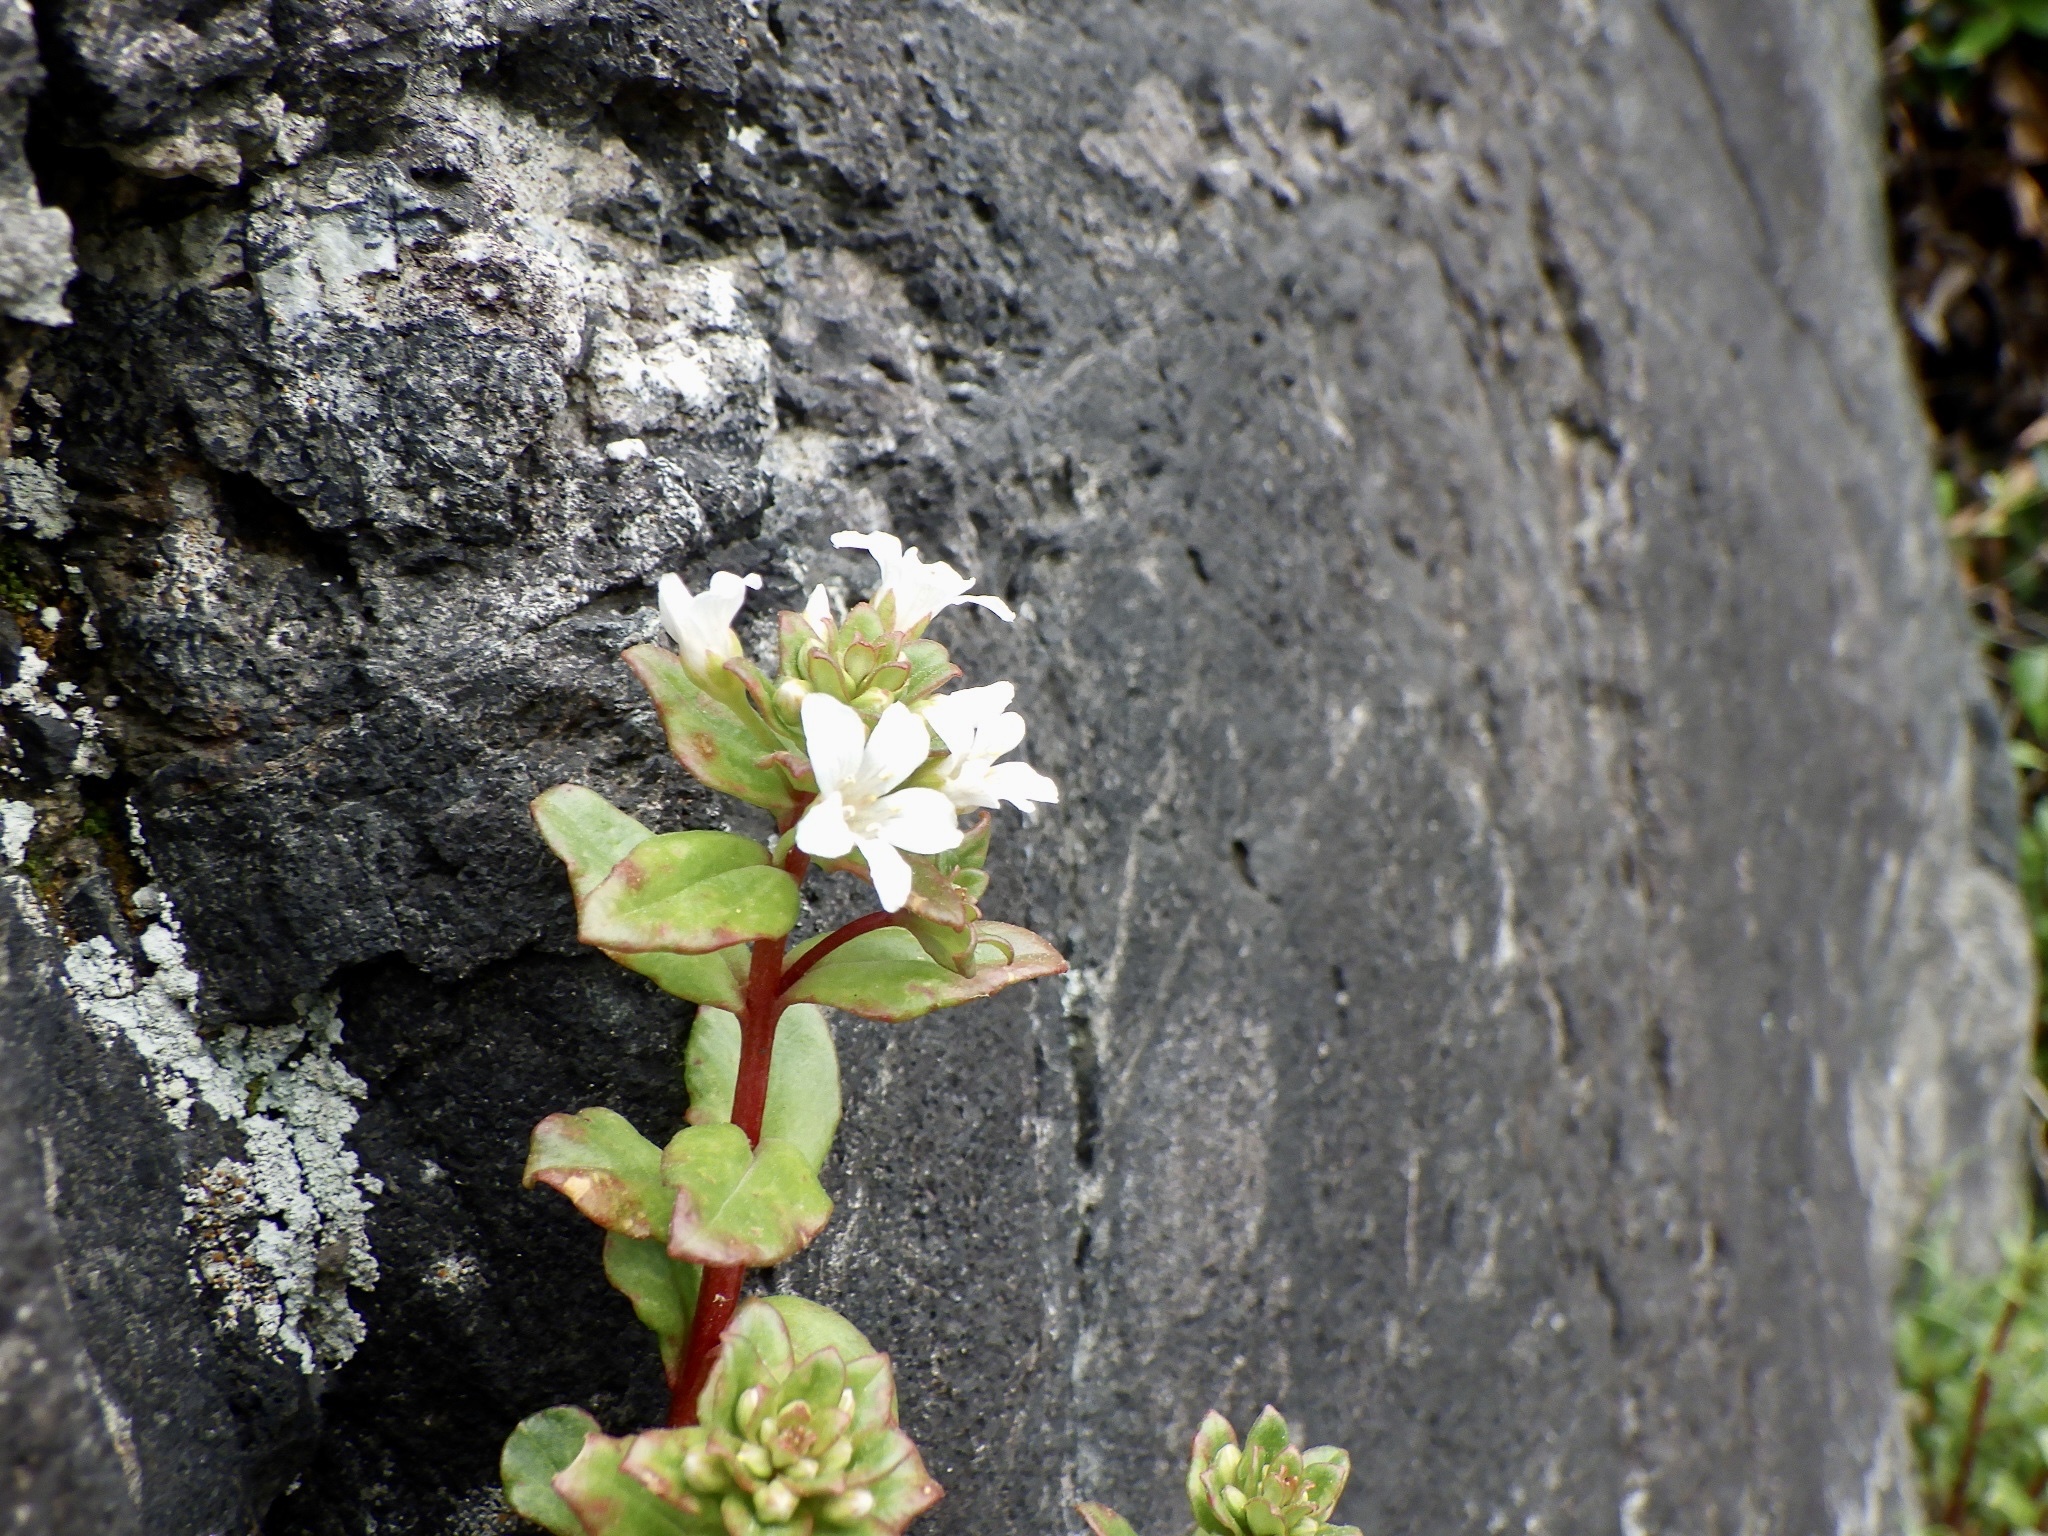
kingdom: Plantae
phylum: Tracheophyta
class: Magnoliopsida
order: Ericales
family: Primulaceae
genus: Lysimachia
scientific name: Lysimachia mauritiana
